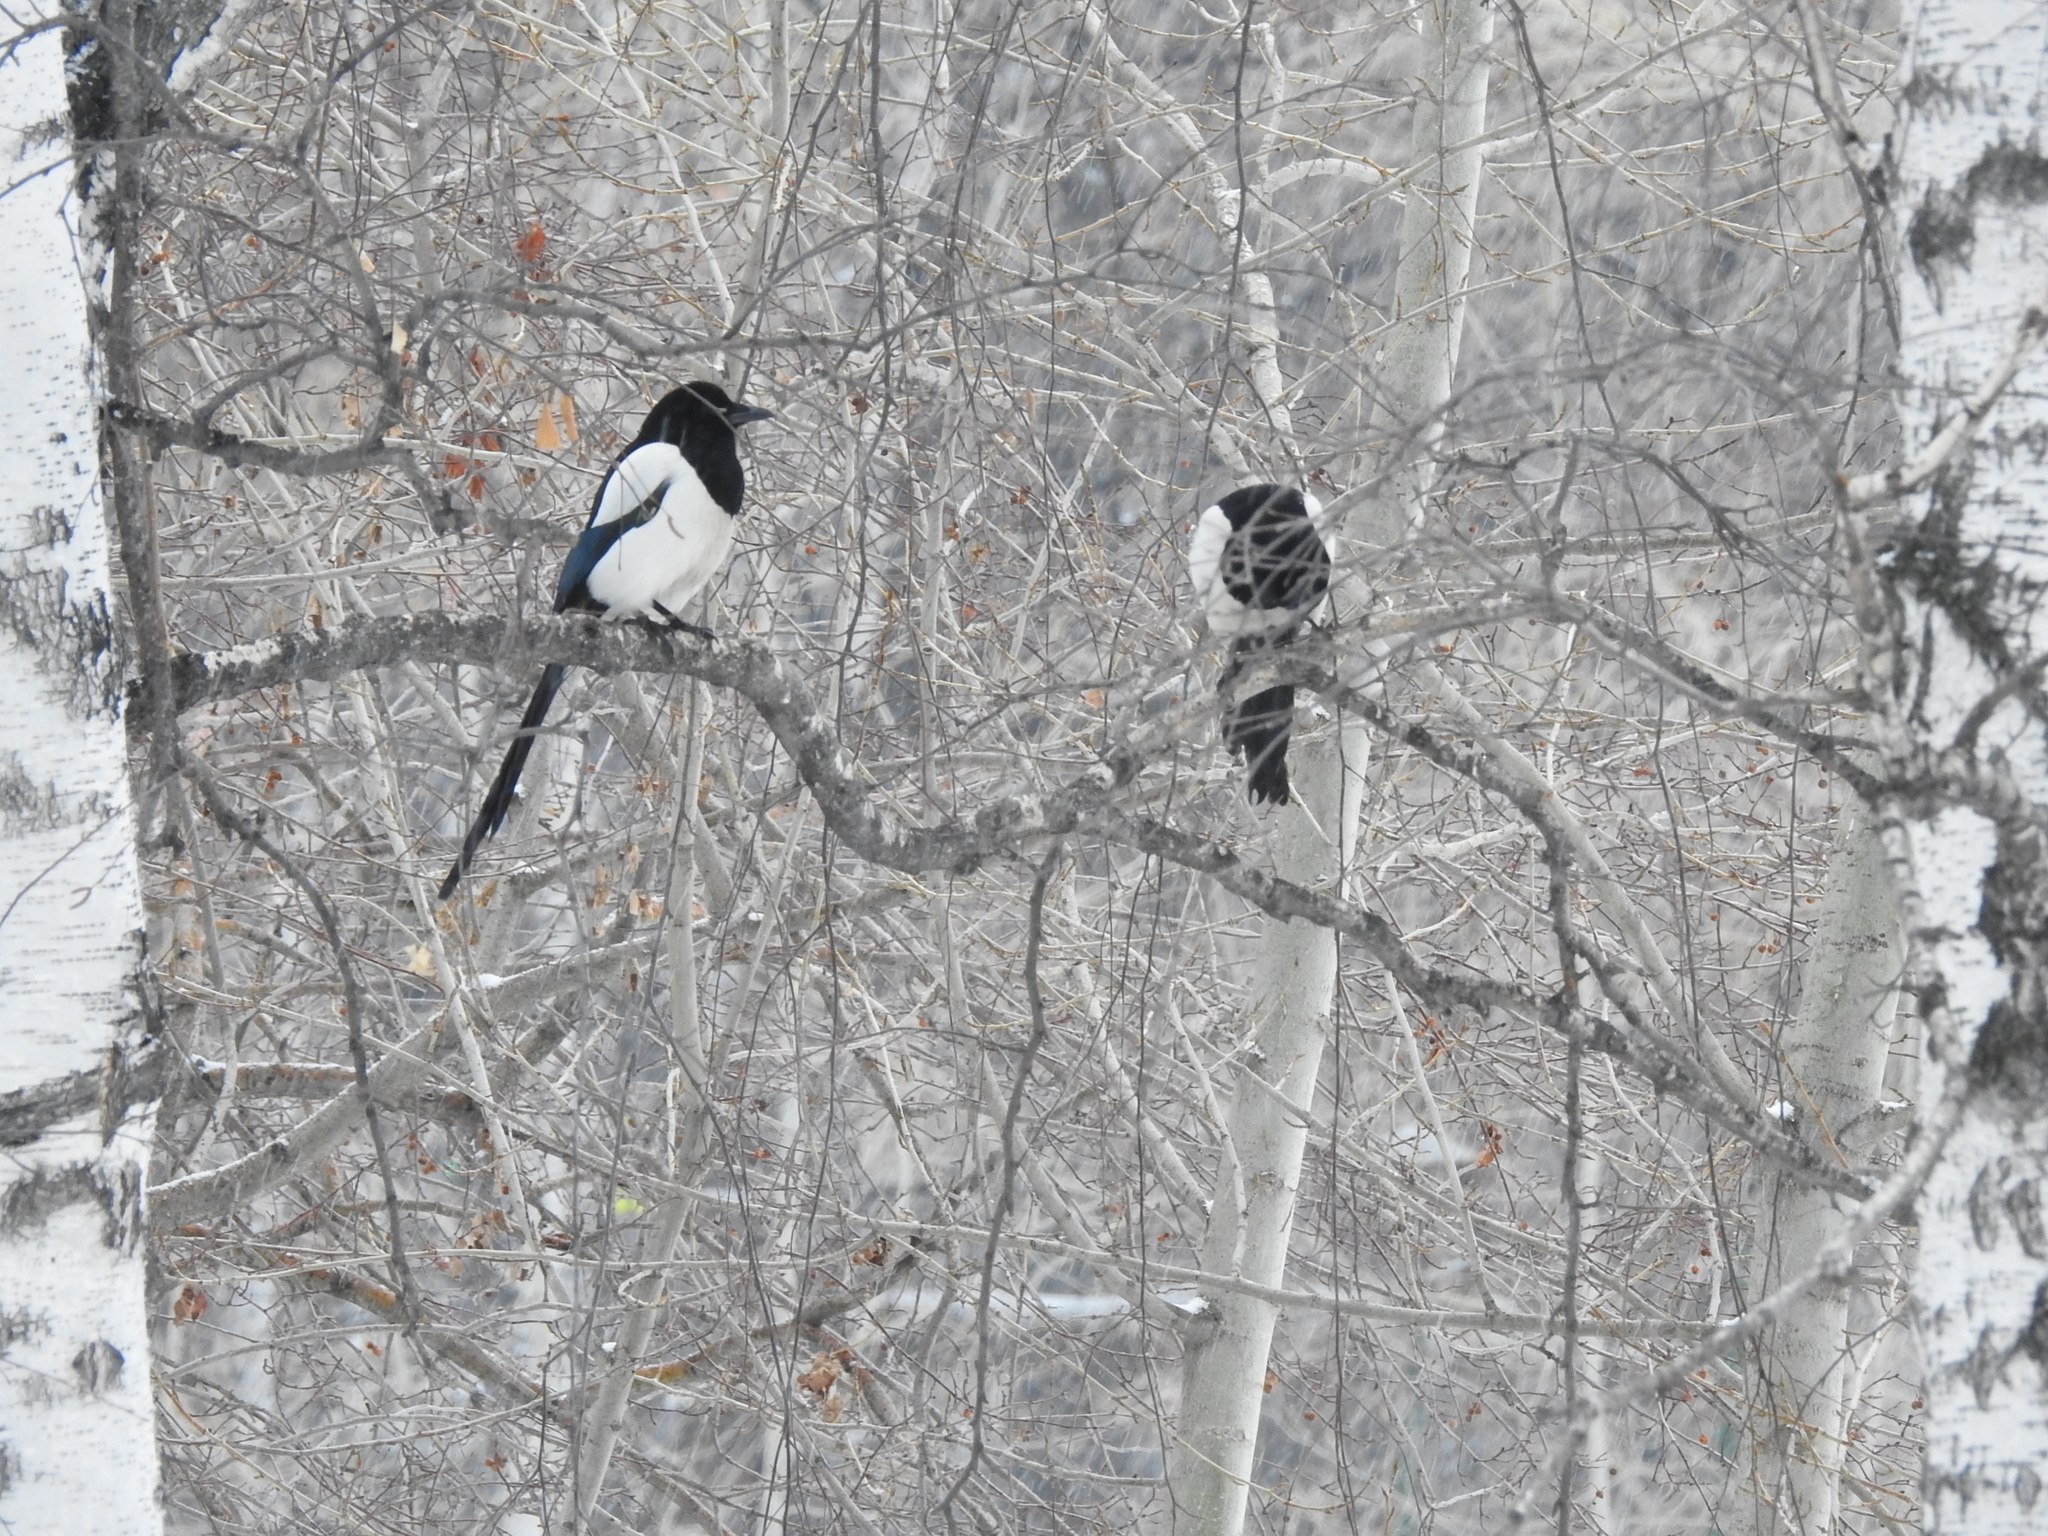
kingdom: Animalia
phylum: Chordata
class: Aves
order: Passeriformes
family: Corvidae
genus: Pica
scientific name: Pica pica
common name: Eurasian magpie
